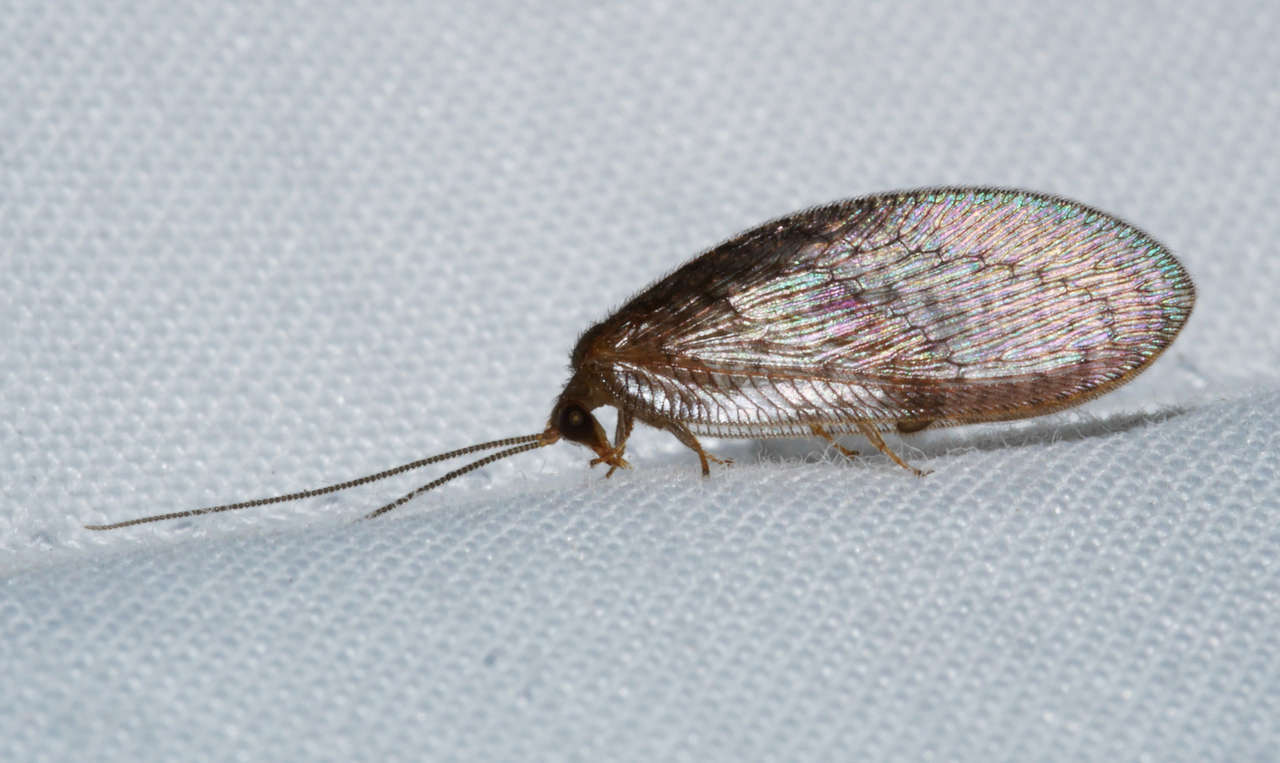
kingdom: Animalia
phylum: Arthropoda
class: Insecta
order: Neuroptera
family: Hemerobiidae
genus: Psychobiella
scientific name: Psychobiella sordida
